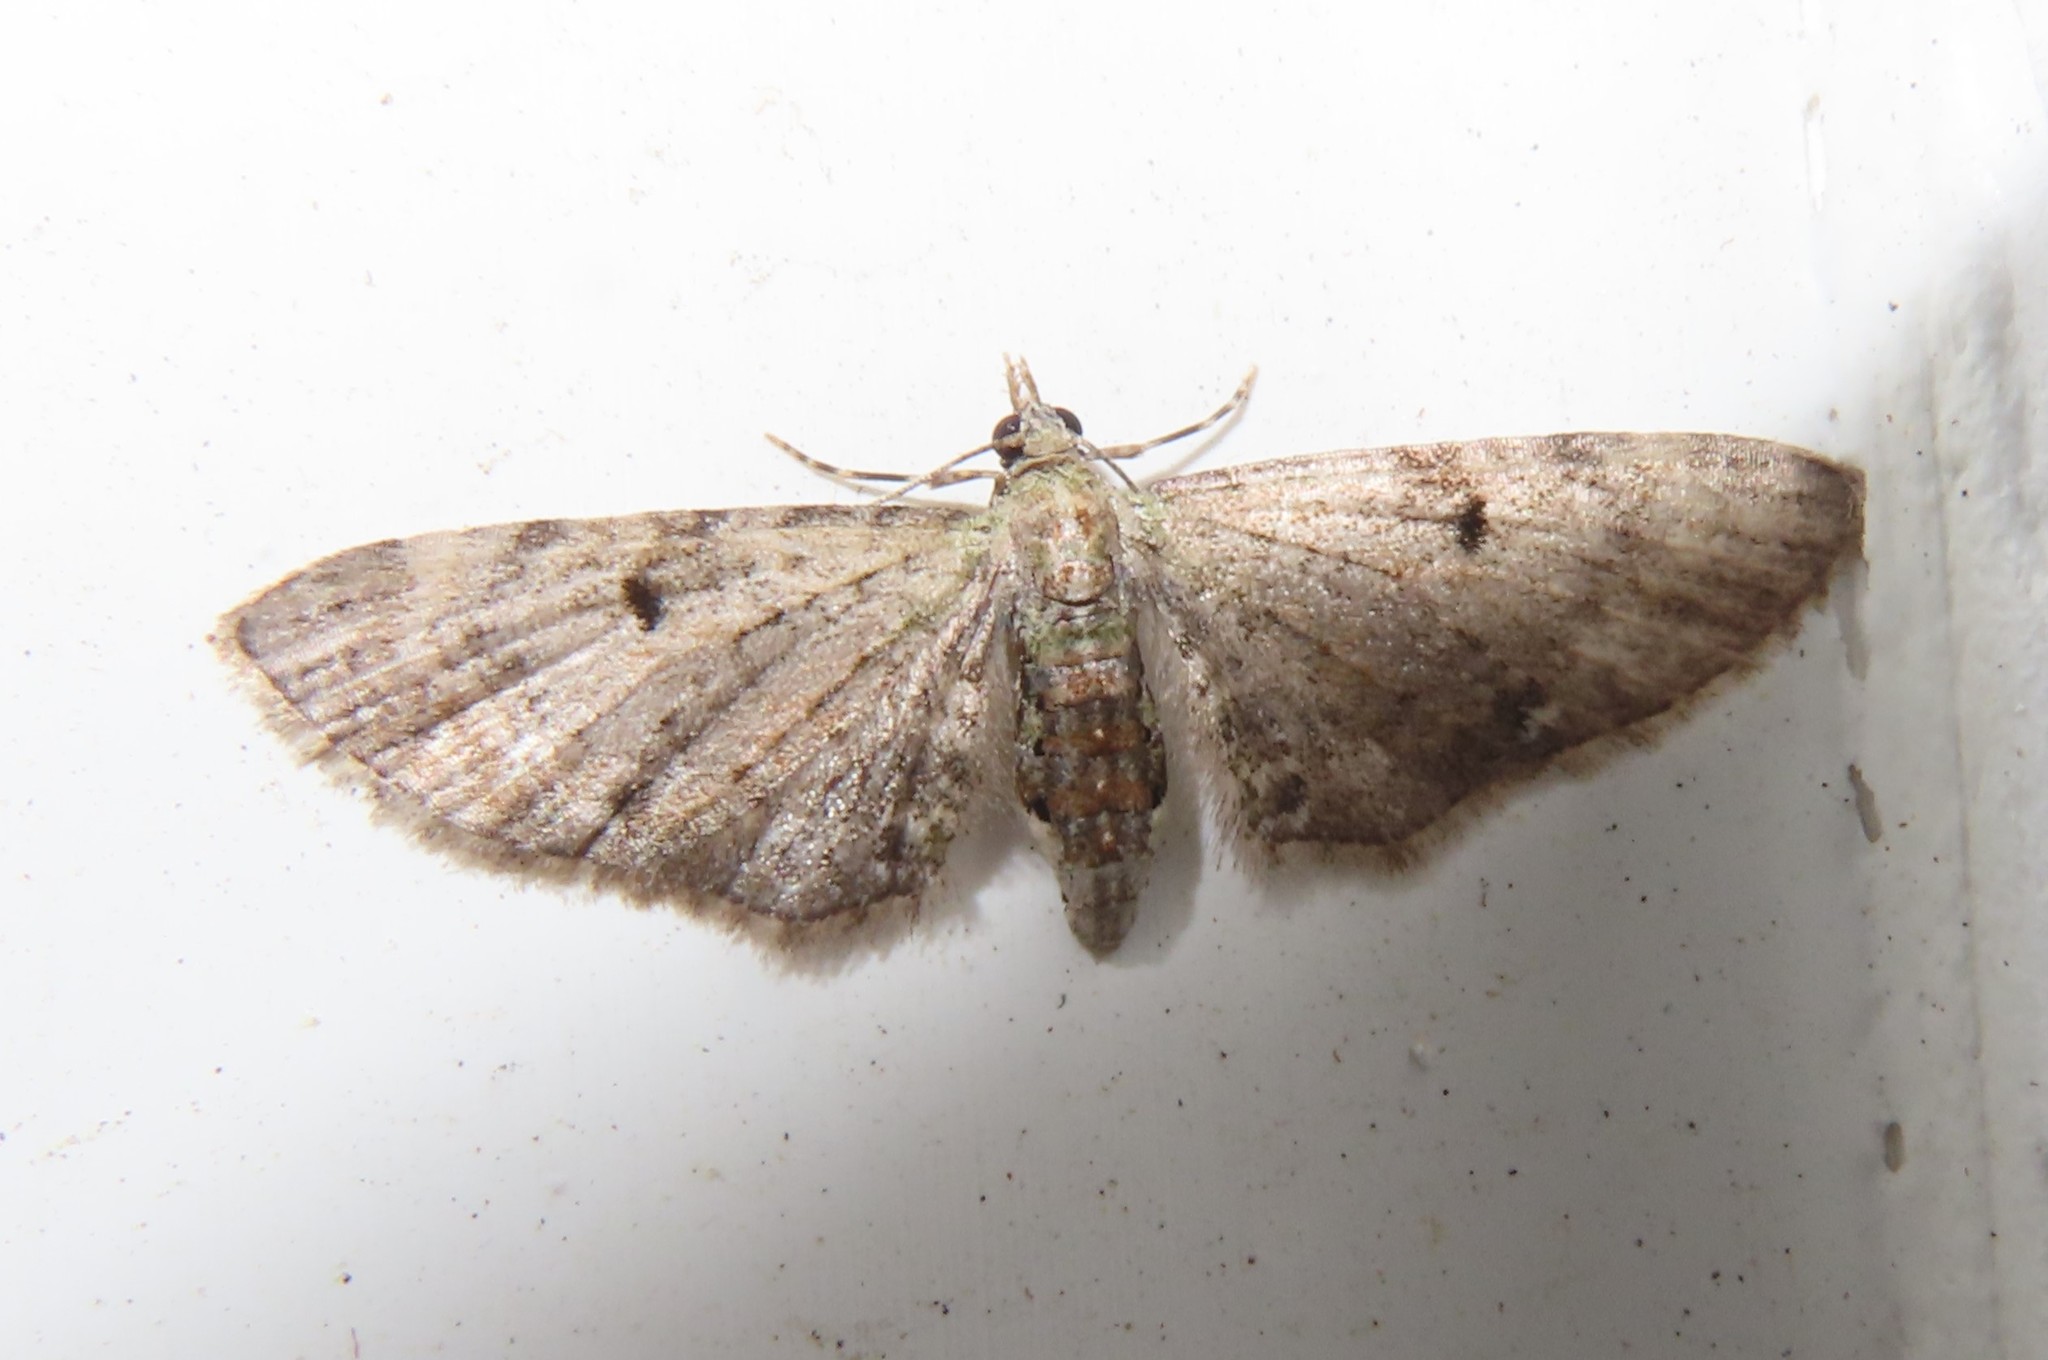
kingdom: Animalia
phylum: Arthropoda
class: Insecta
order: Lepidoptera
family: Geometridae
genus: Eupithecia
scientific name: Eupithecia miserulata
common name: Common eupithecia
